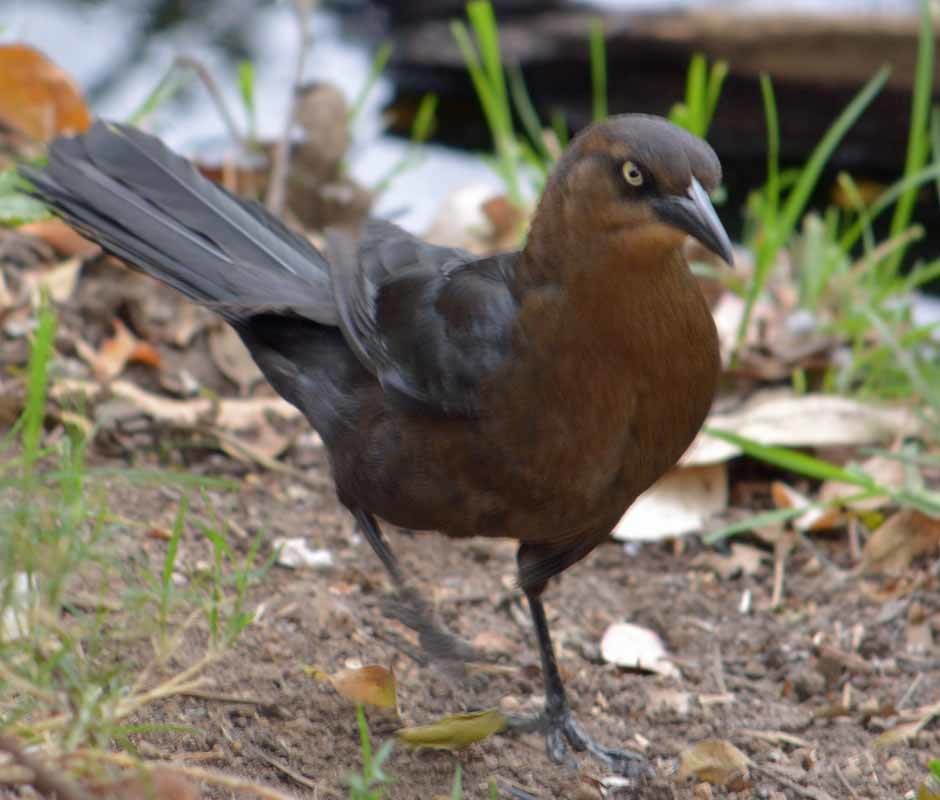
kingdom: Animalia
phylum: Chordata
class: Aves
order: Passeriformes
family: Icteridae
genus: Quiscalus
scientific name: Quiscalus mexicanus
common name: Great-tailed grackle
